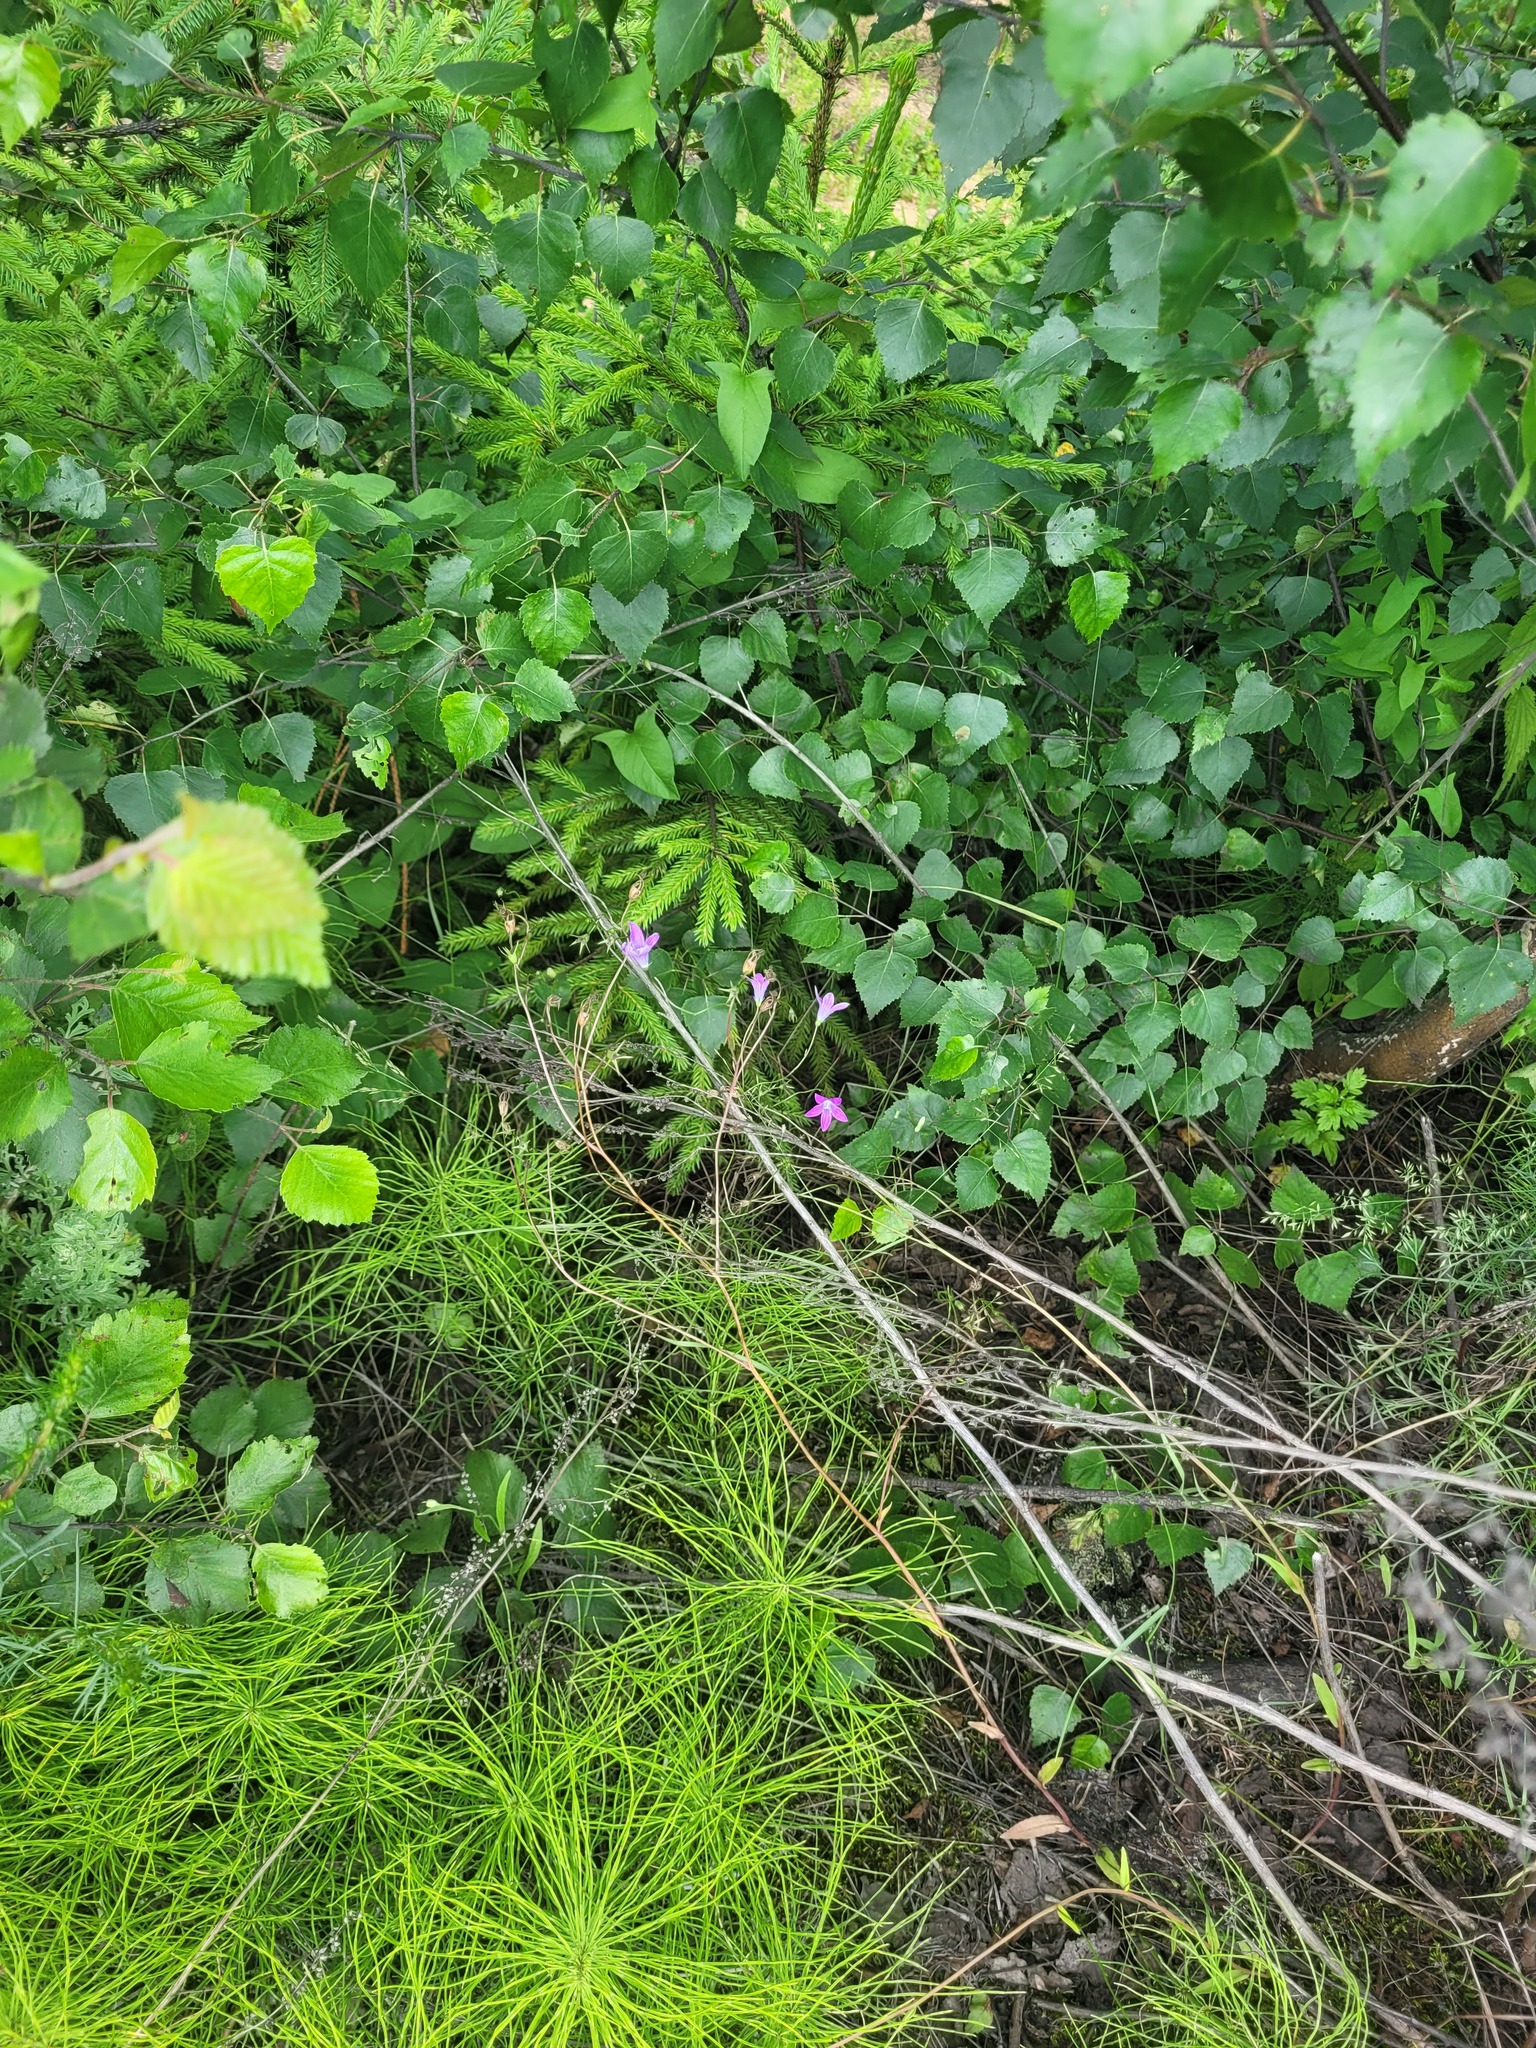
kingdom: Plantae
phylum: Tracheophyta
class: Magnoliopsida
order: Asterales
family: Campanulaceae
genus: Campanula
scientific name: Campanula patula
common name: Spreading bellflower
